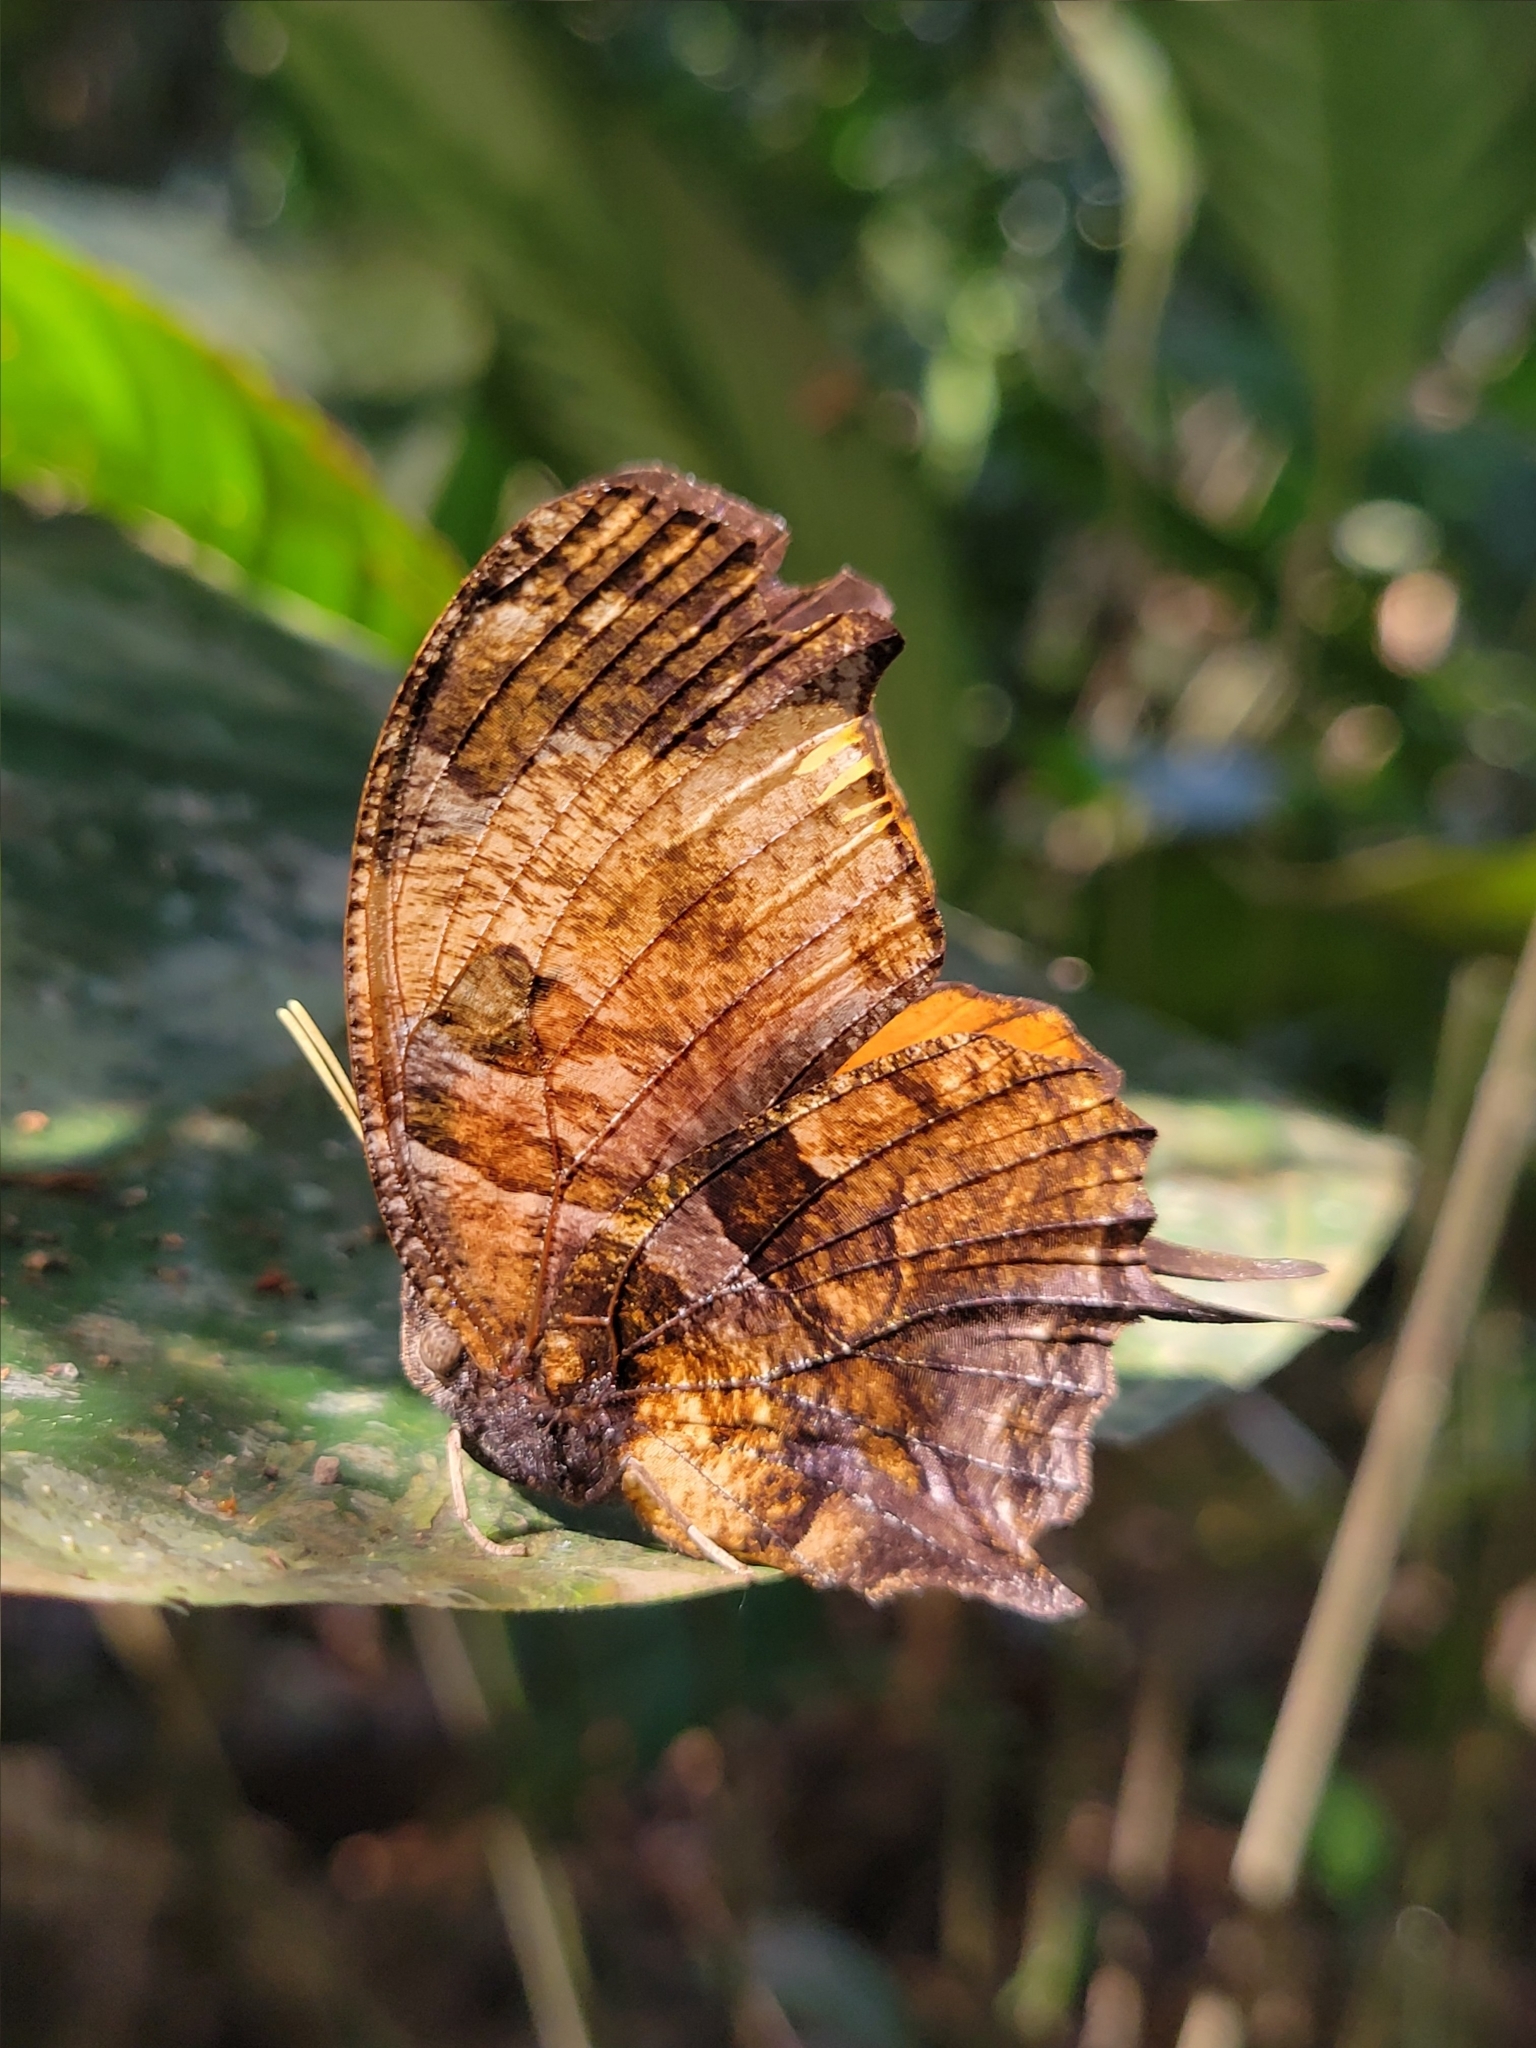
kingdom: Animalia
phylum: Arthropoda
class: Insecta
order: Lepidoptera
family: Nymphalidae
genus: Consul
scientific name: Consul fabius
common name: Tiger leafwing
